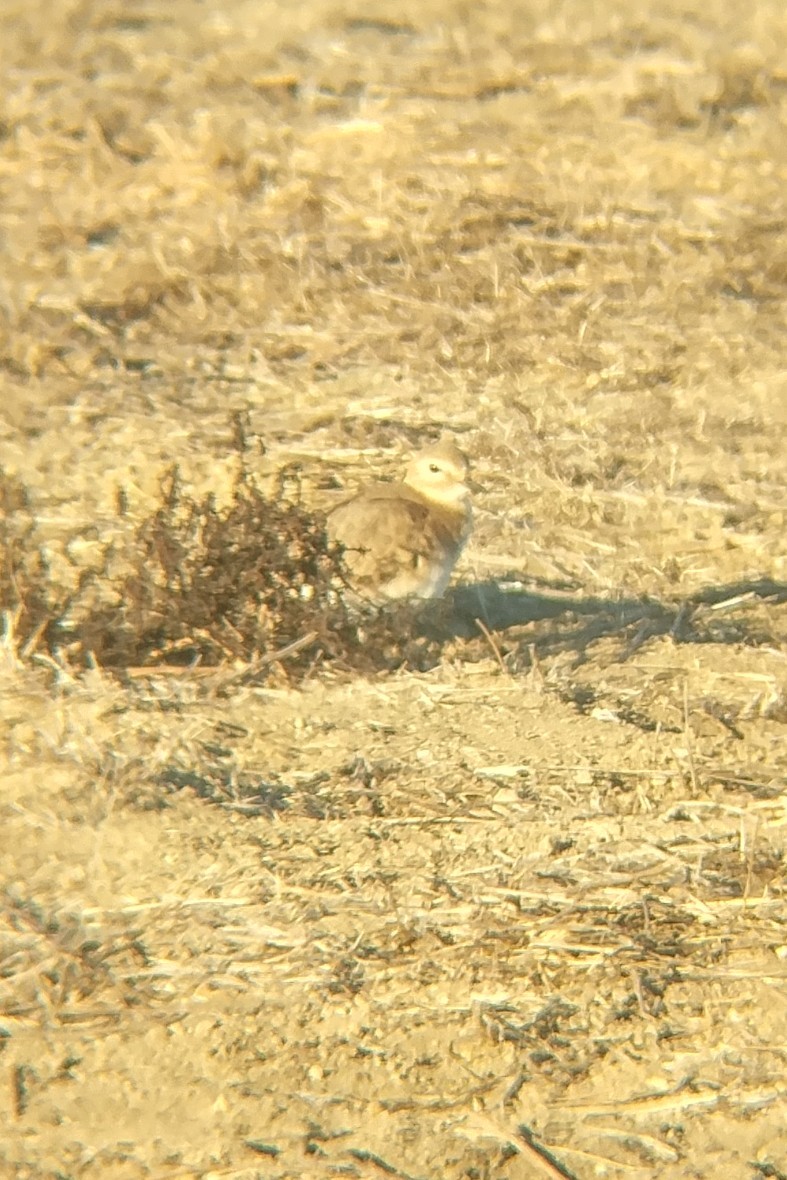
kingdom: Animalia
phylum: Chordata
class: Aves
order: Charadriiformes
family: Charadriidae
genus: Anarhynchus
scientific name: Anarhynchus
